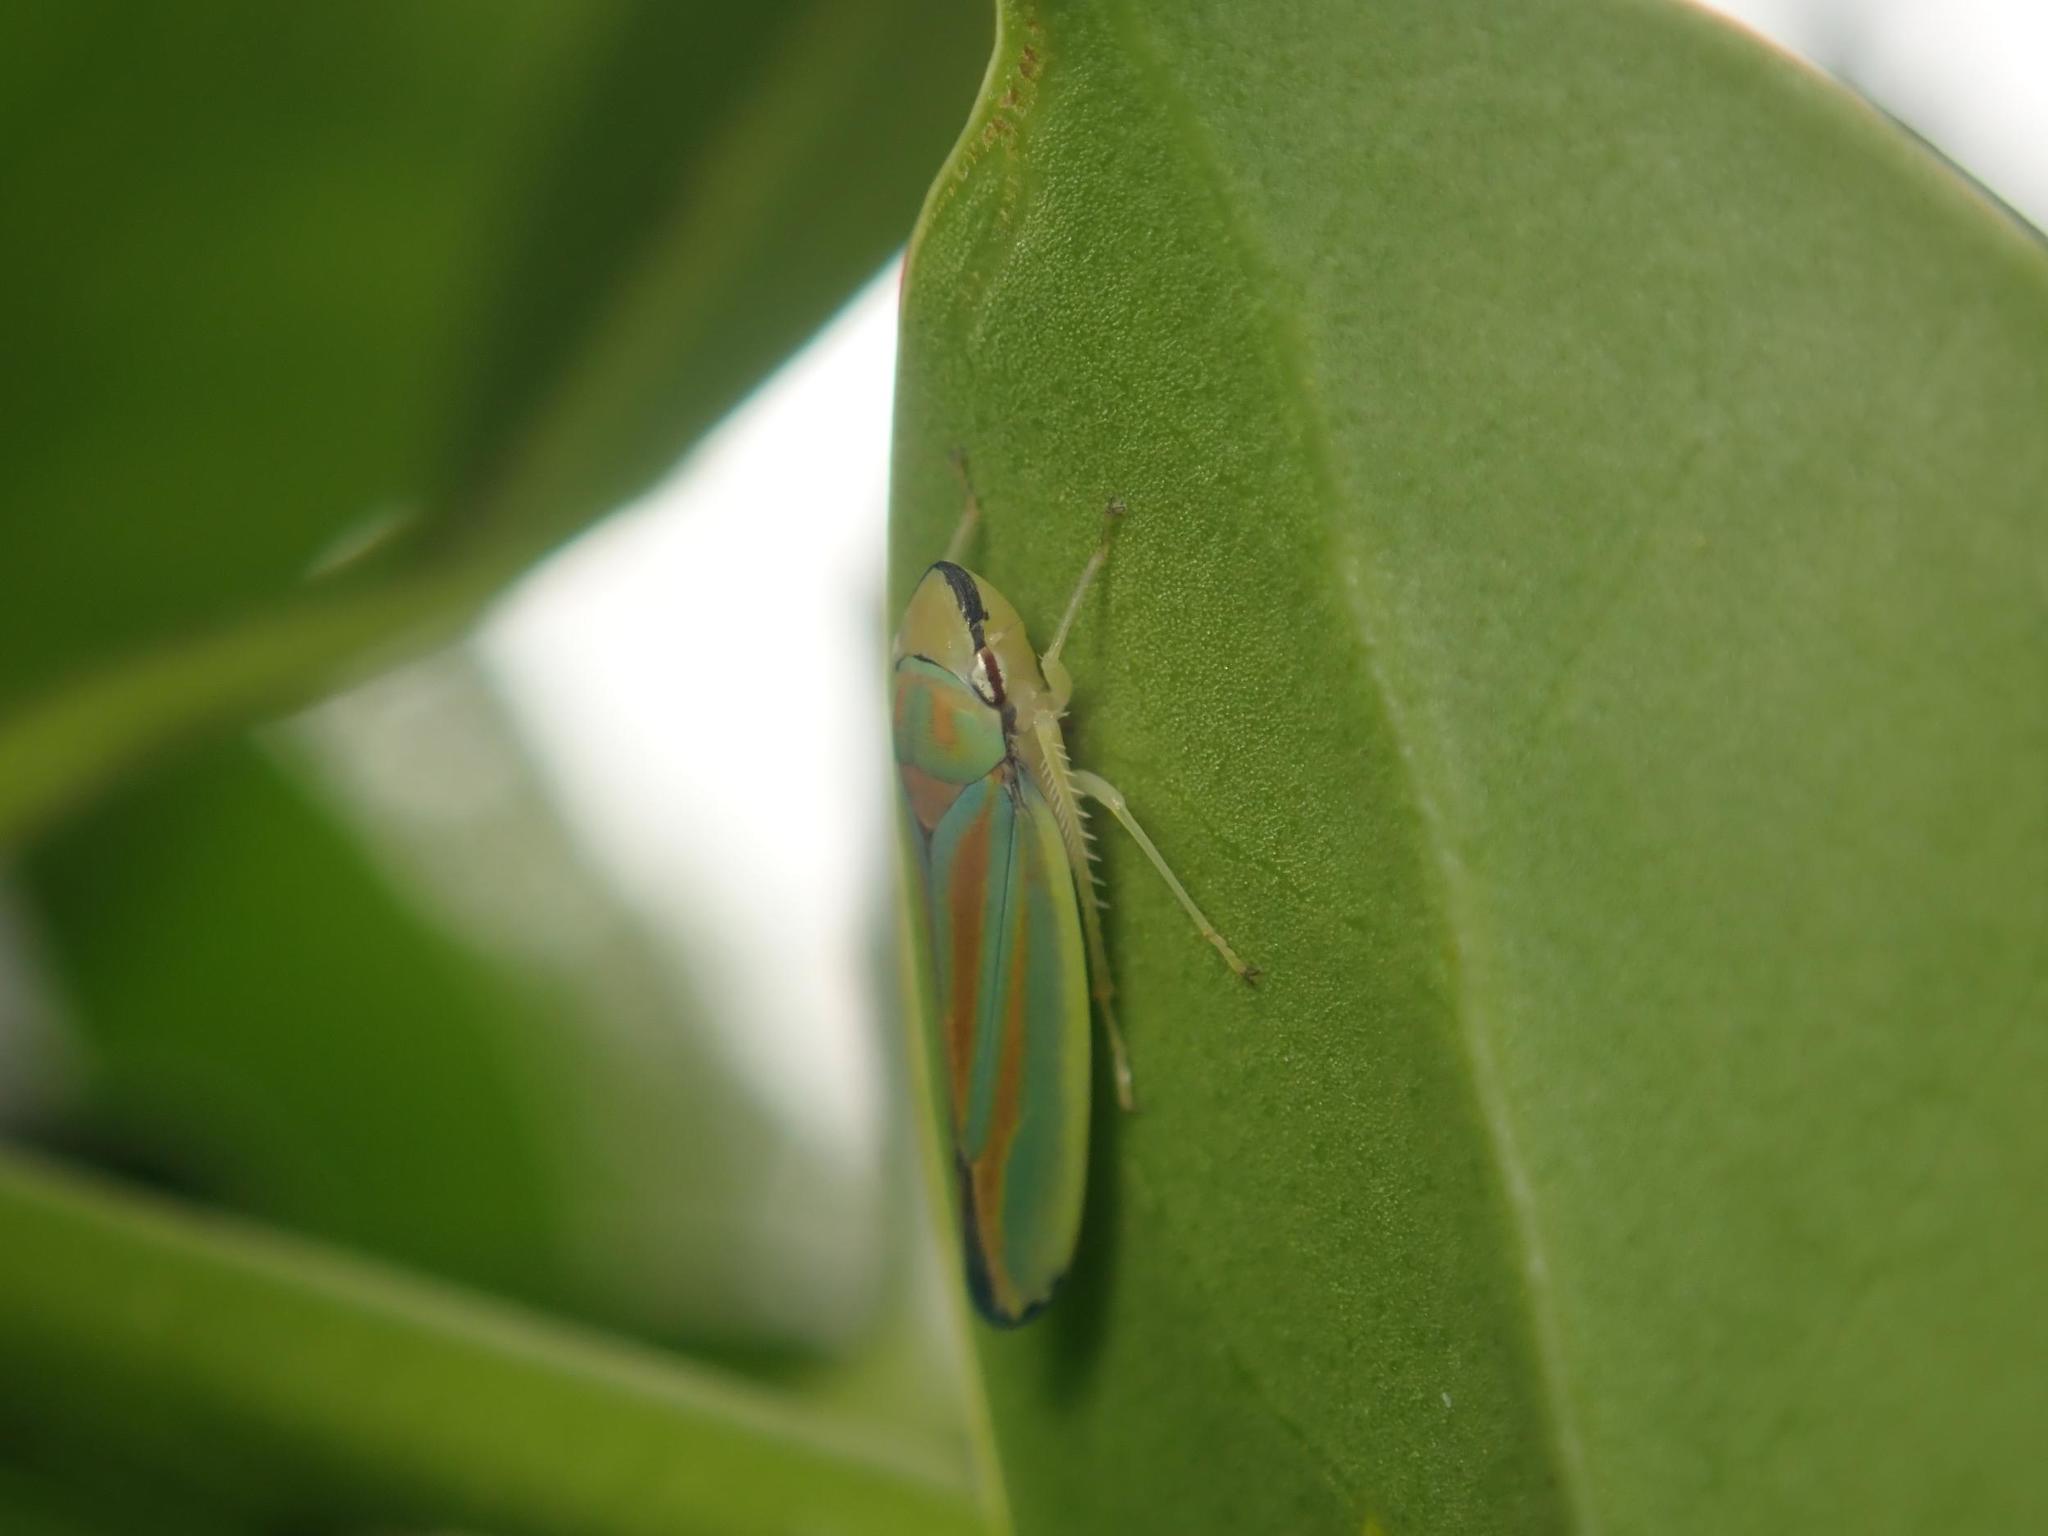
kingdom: Animalia
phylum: Arthropoda
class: Insecta
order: Hemiptera
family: Cicadellidae
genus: Graphocephala
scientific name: Graphocephala fennahi
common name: Rhododendron leafhopper
